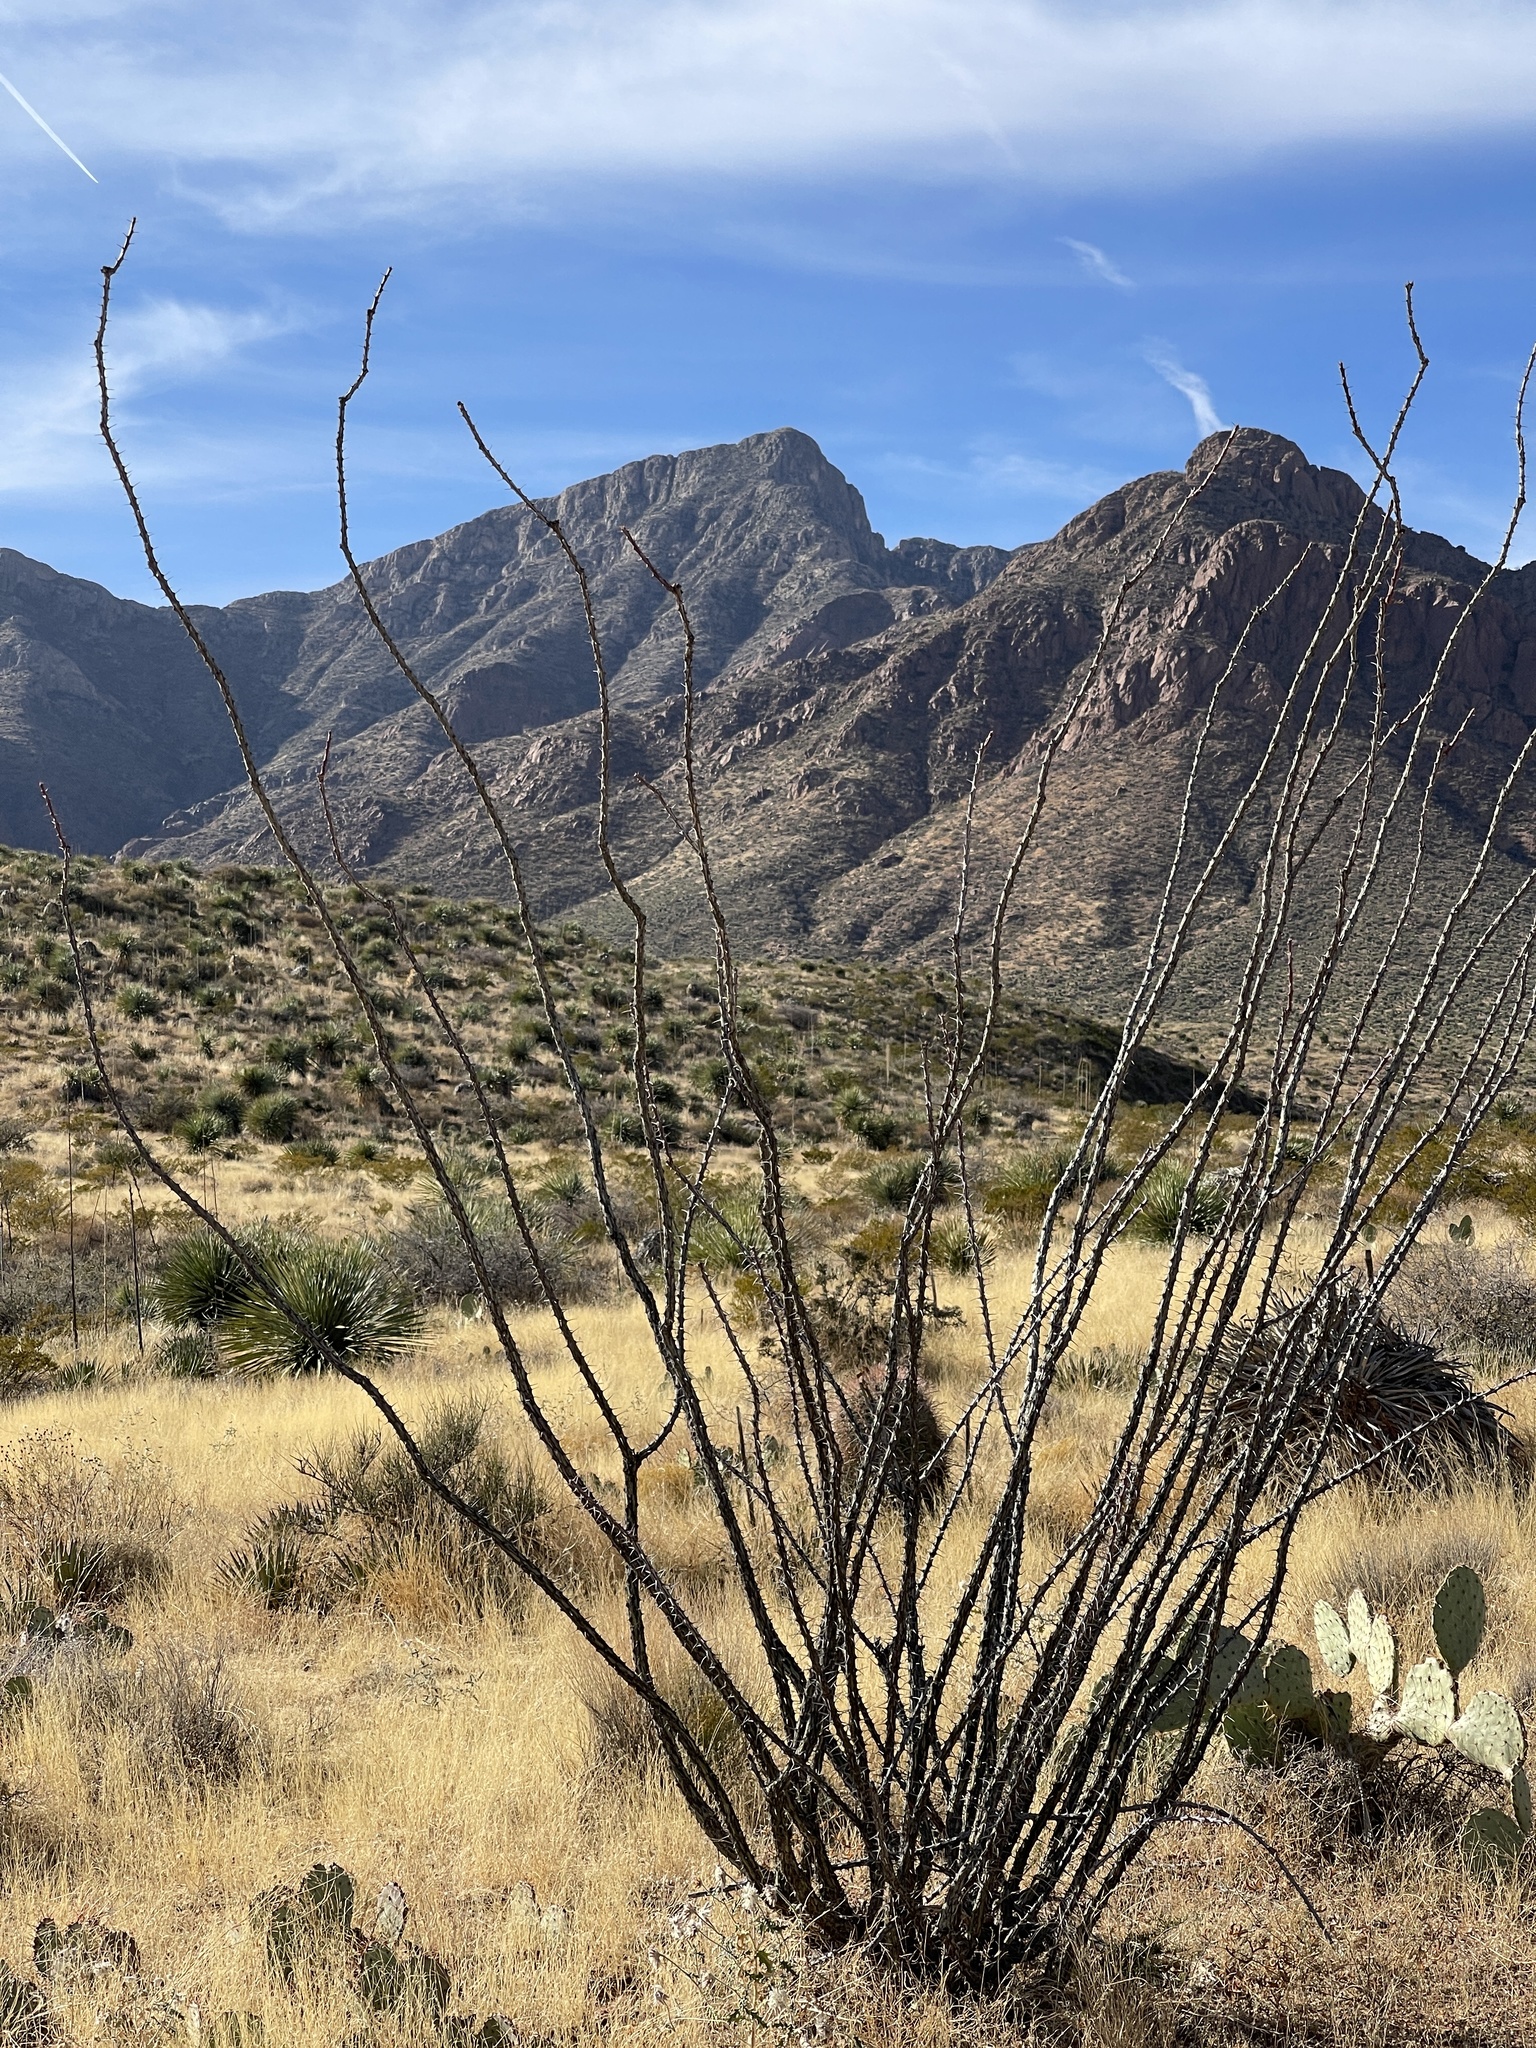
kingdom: Plantae
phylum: Tracheophyta
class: Magnoliopsida
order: Ericales
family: Fouquieriaceae
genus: Fouquieria
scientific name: Fouquieria splendens
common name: Vine-cactus
